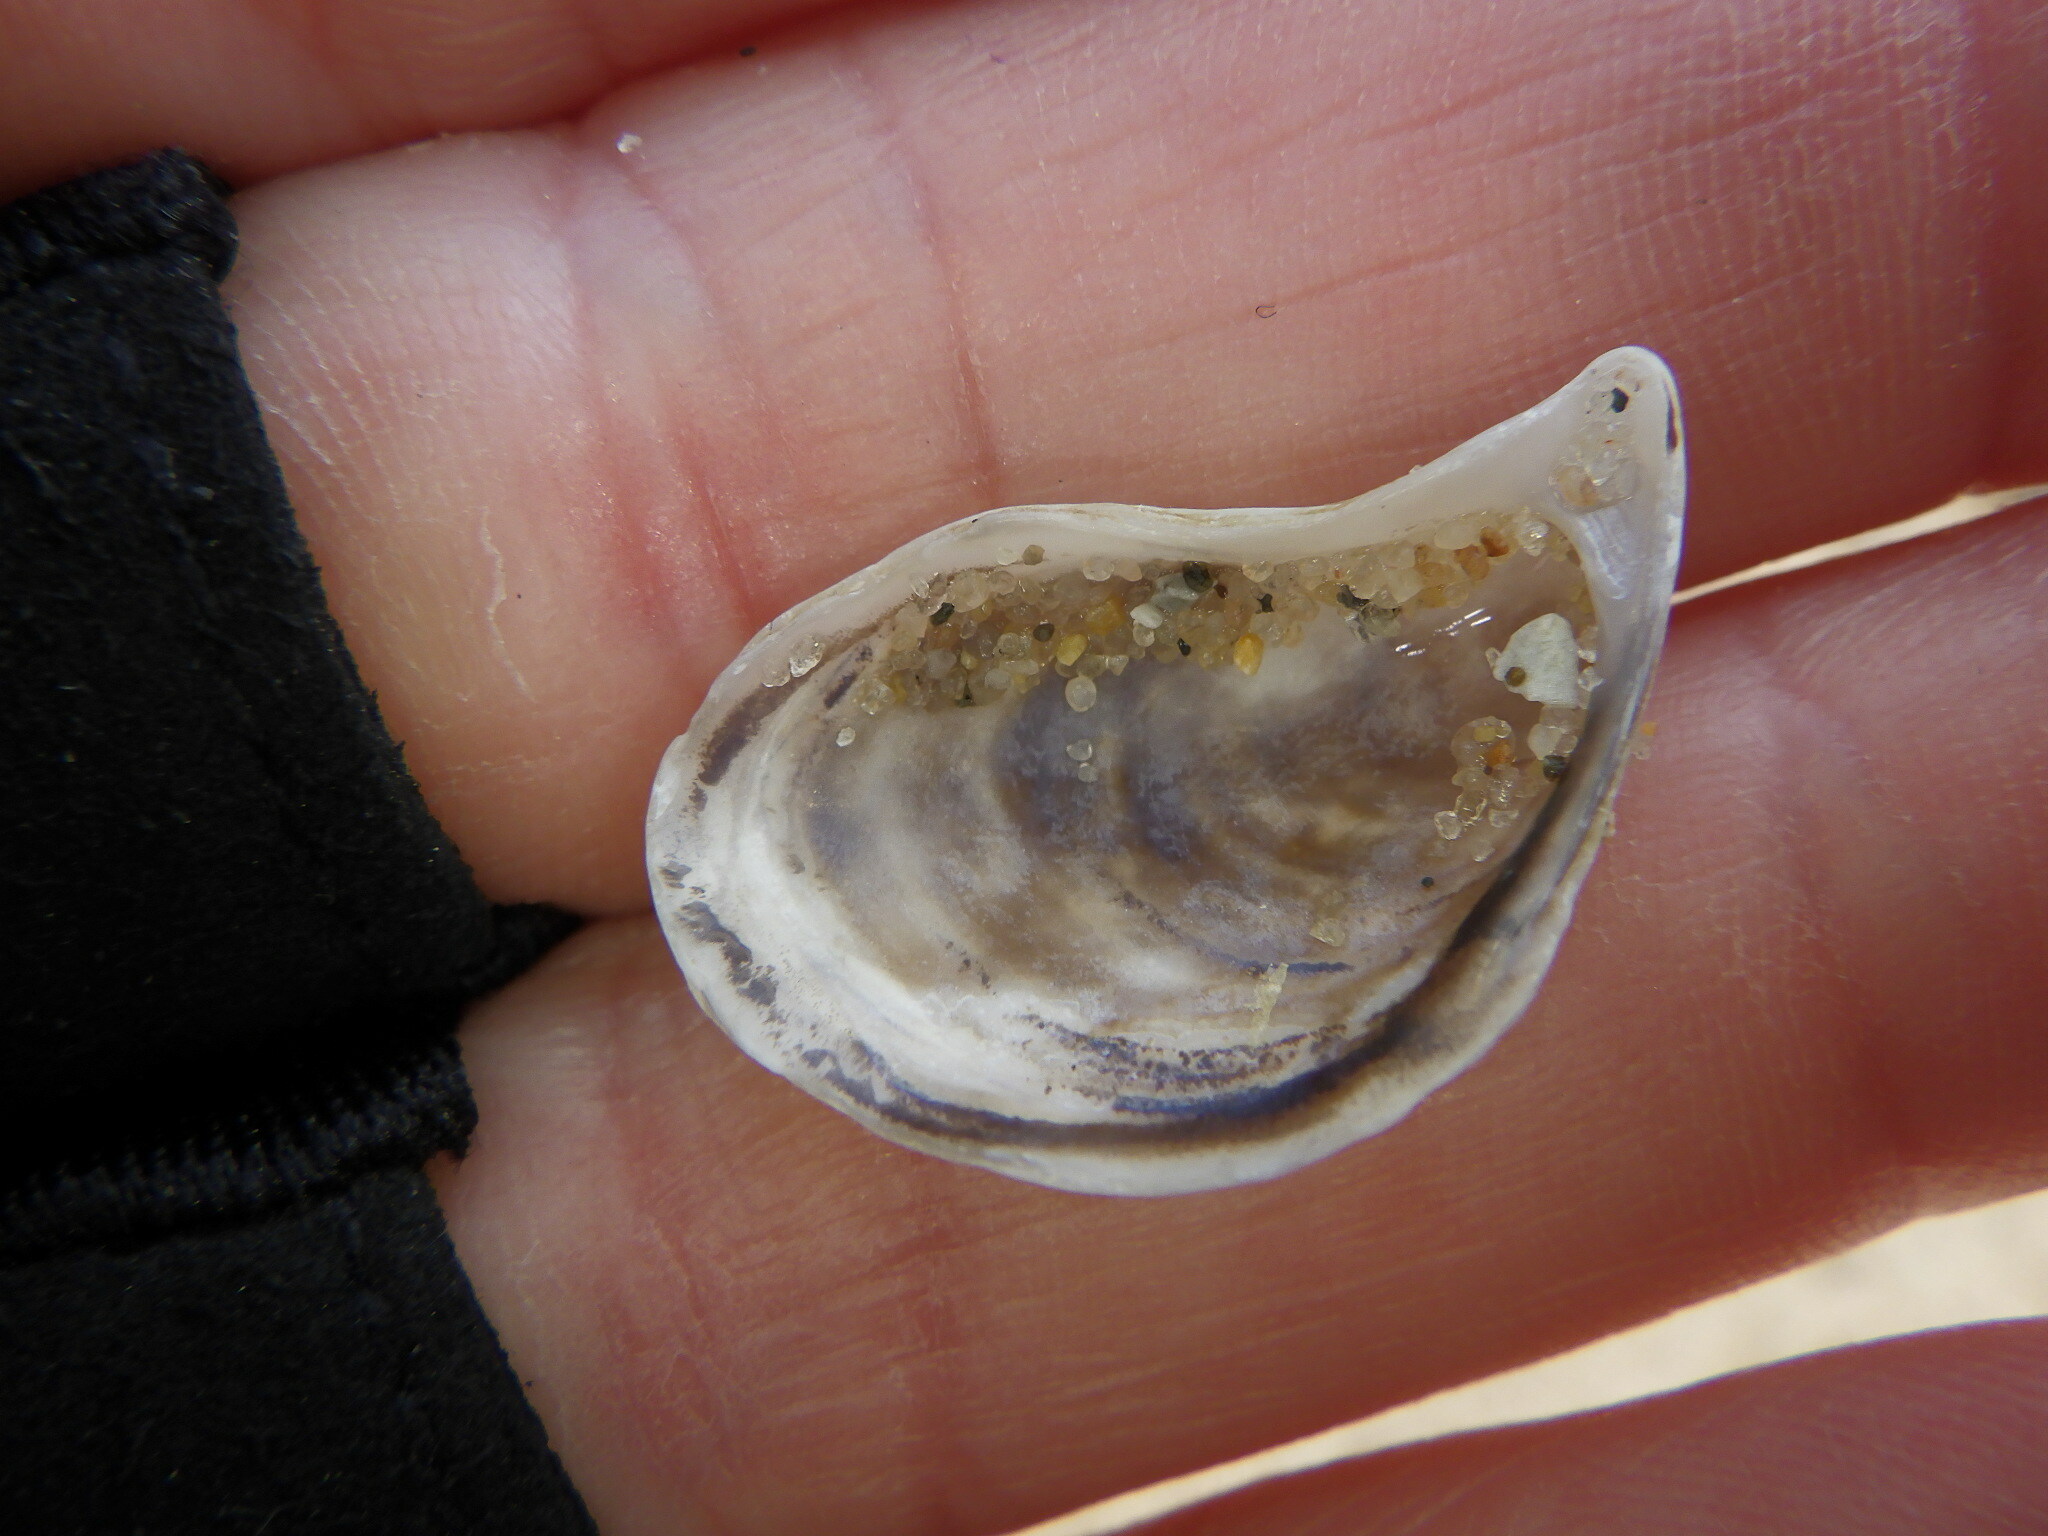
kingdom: Animalia
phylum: Mollusca
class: Bivalvia
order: Myida
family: Dreissenidae
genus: Dreissena
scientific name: Dreissena bugensis
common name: Quagga mussel
